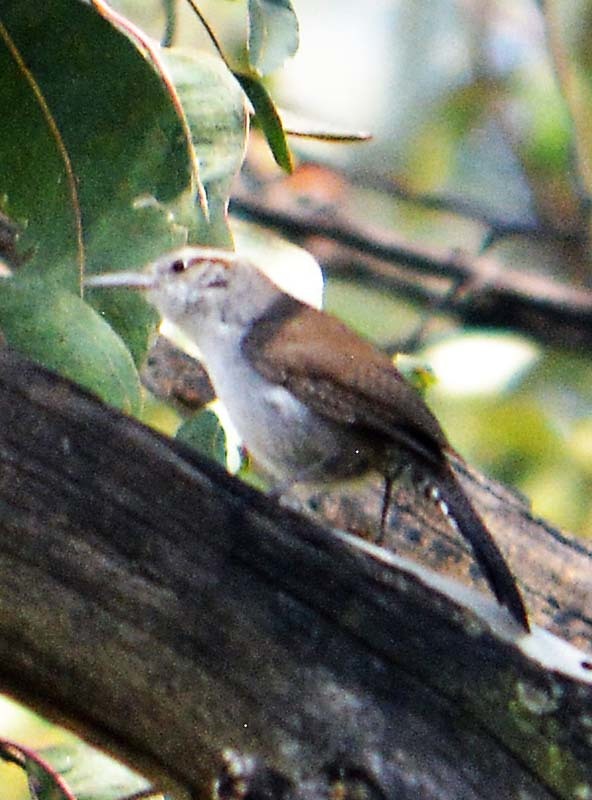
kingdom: Animalia
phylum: Chordata
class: Aves
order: Passeriformes
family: Troglodytidae
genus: Thryomanes
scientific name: Thryomanes bewickii
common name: Bewick's wren
